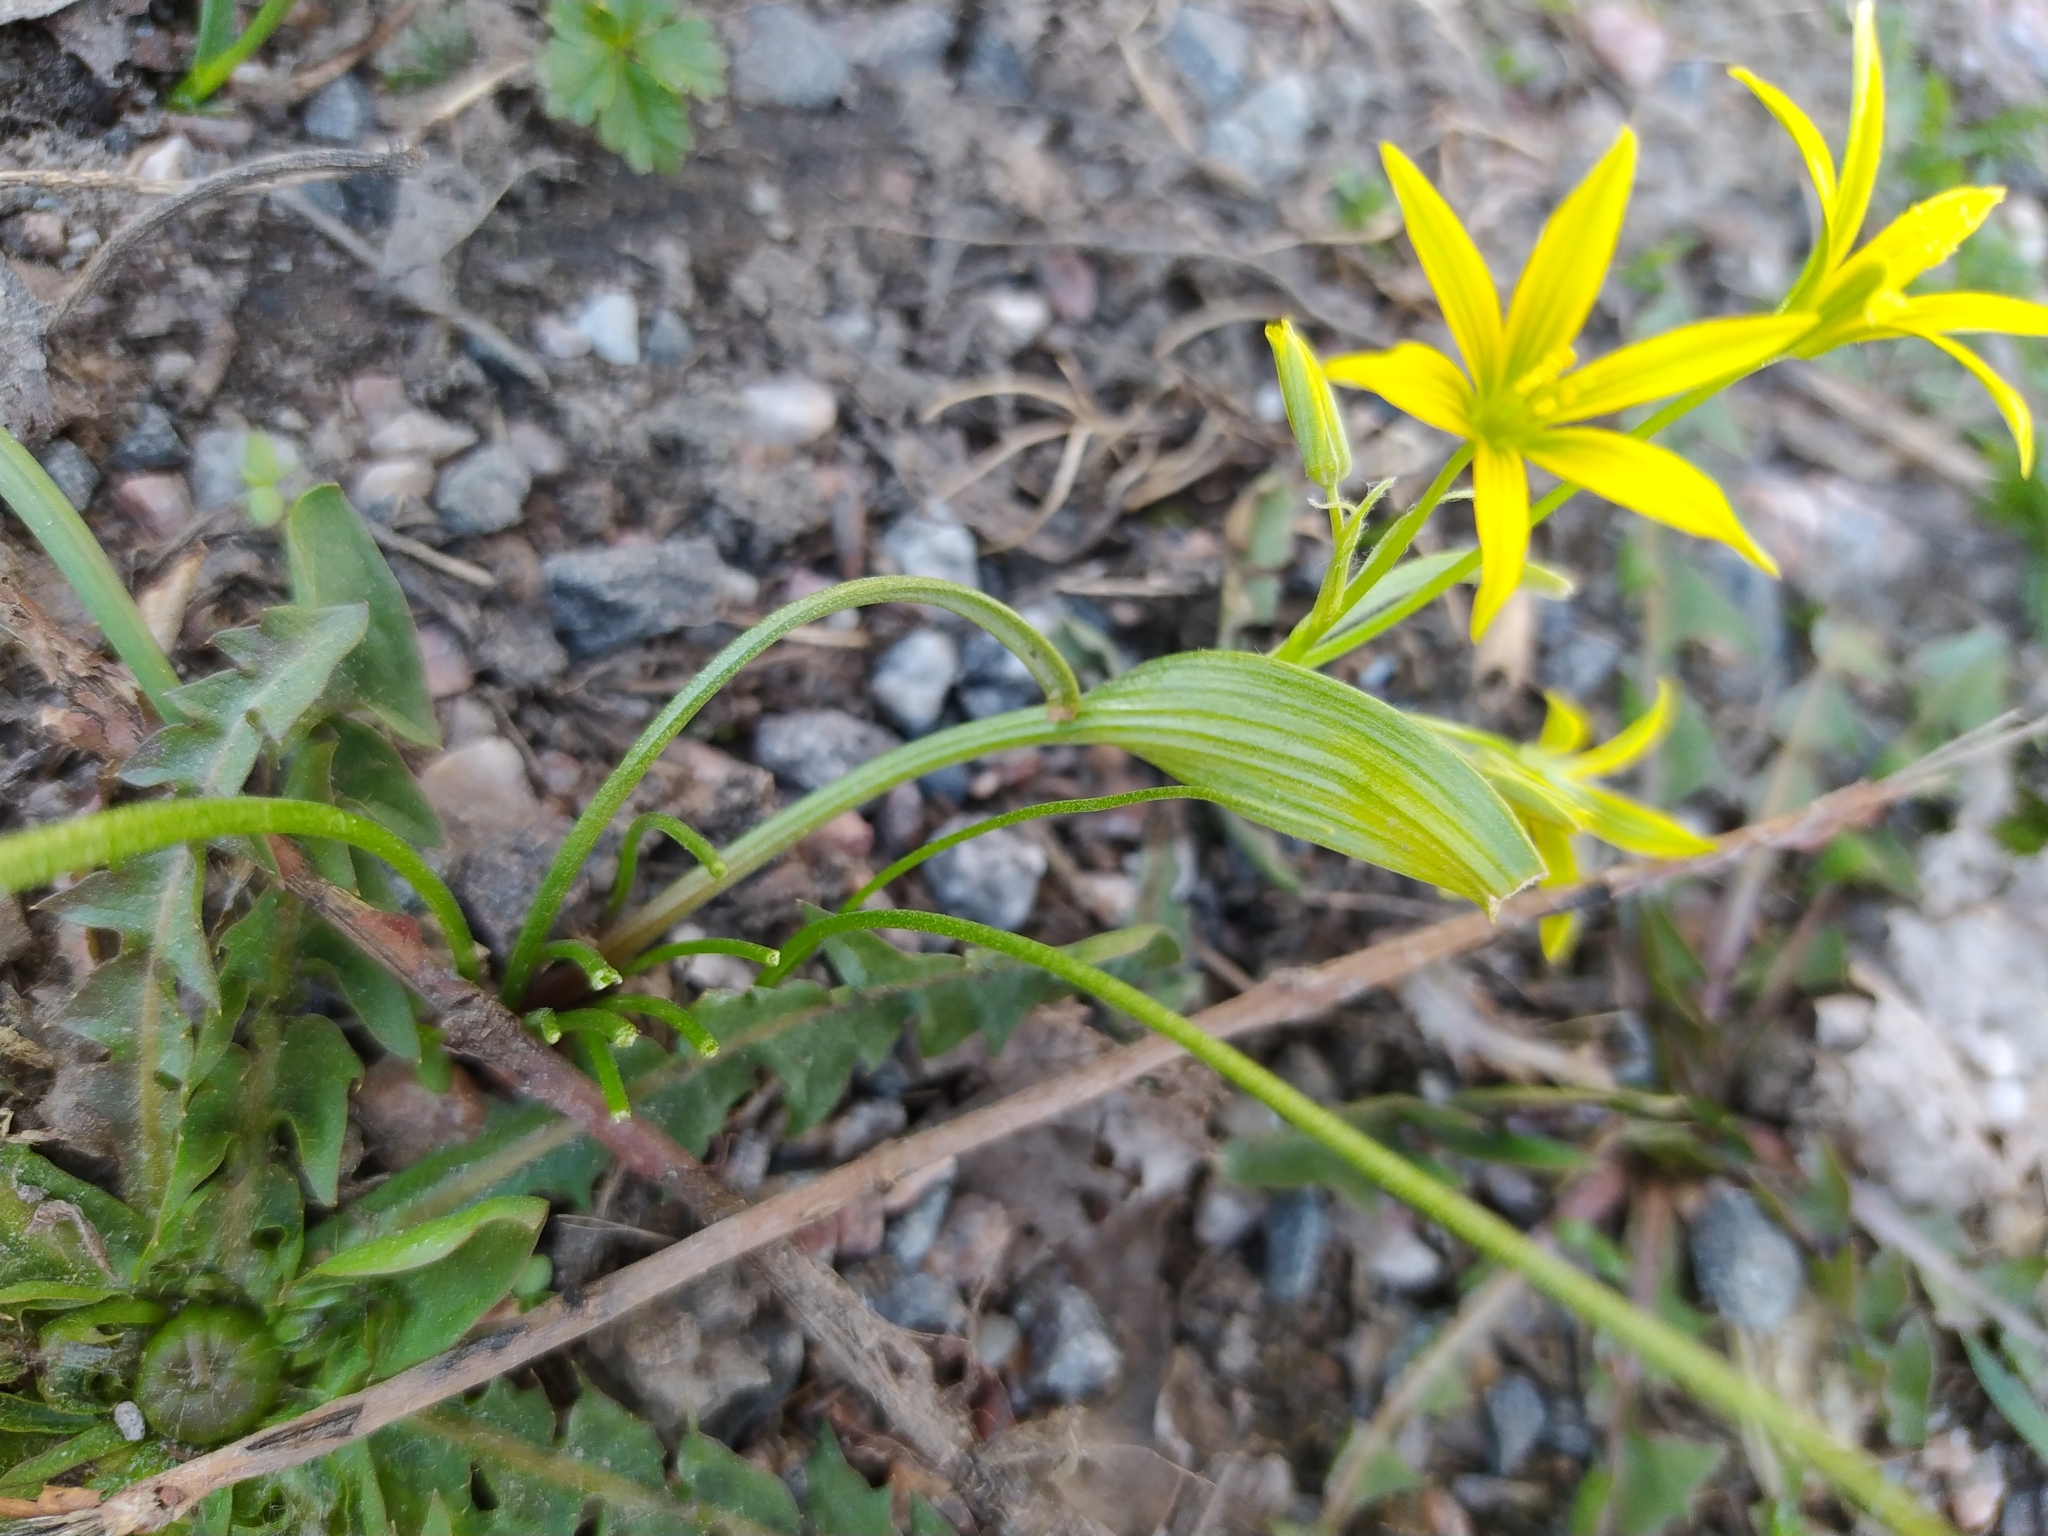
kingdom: Plantae
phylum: Tracheophyta
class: Liliopsida
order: Liliales
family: Liliaceae
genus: Gagea
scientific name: Gagea minima
